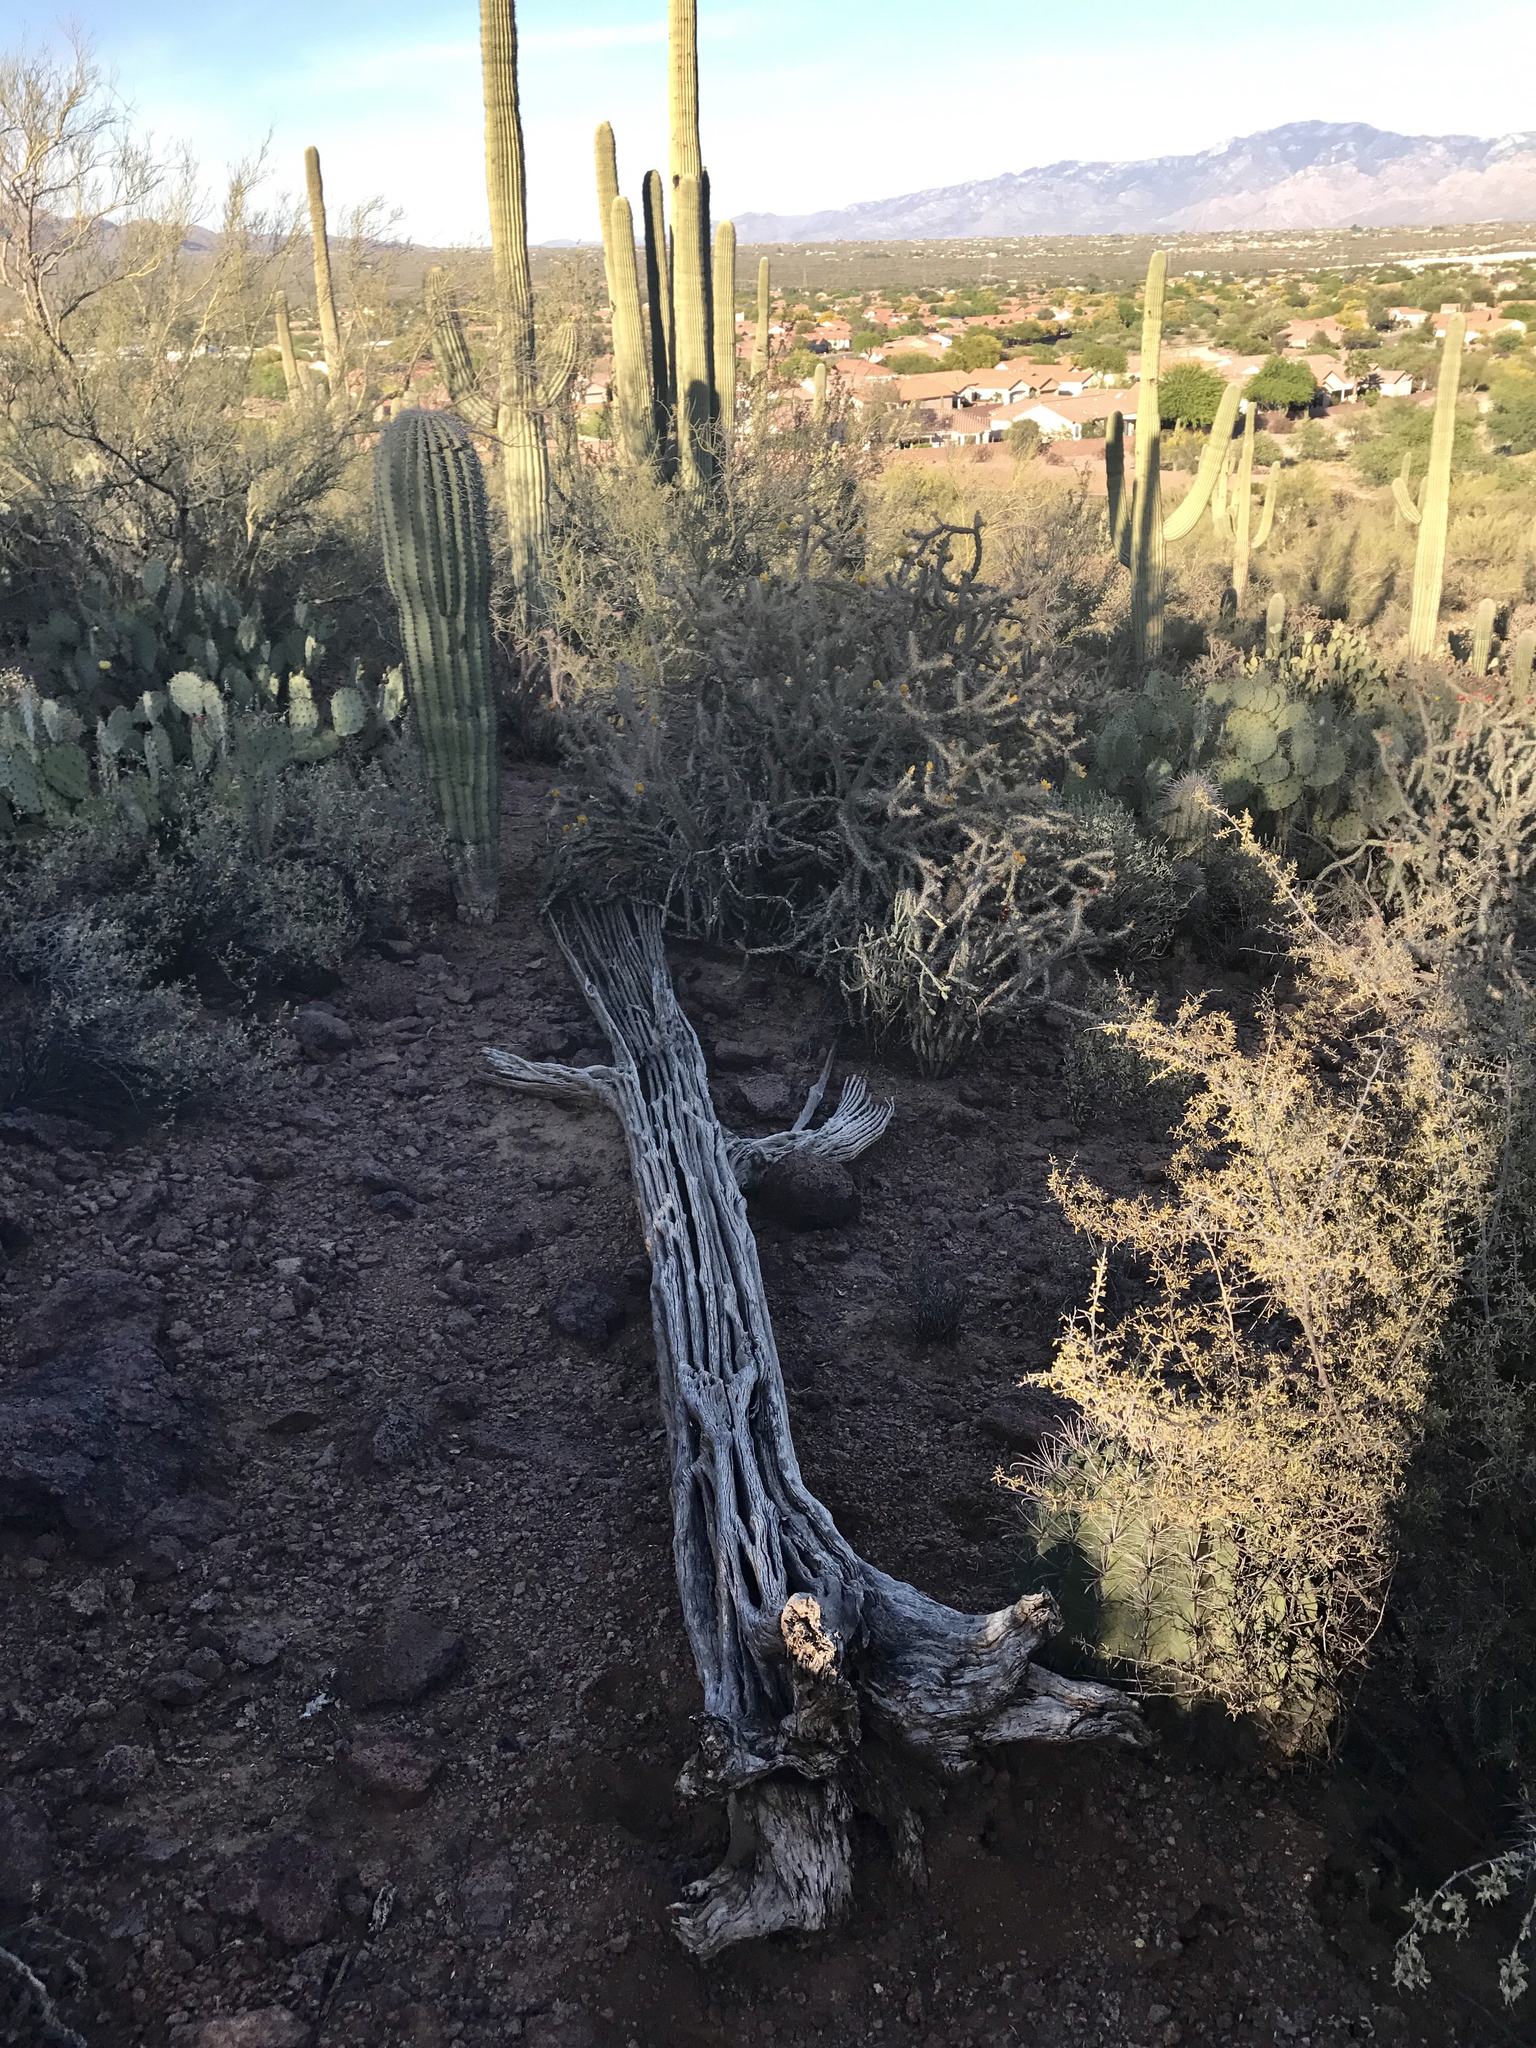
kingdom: Plantae
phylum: Tracheophyta
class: Magnoliopsida
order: Caryophyllales
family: Cactaceae
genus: Carnegiea
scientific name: Carnegiea gigantea
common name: Saguaro
